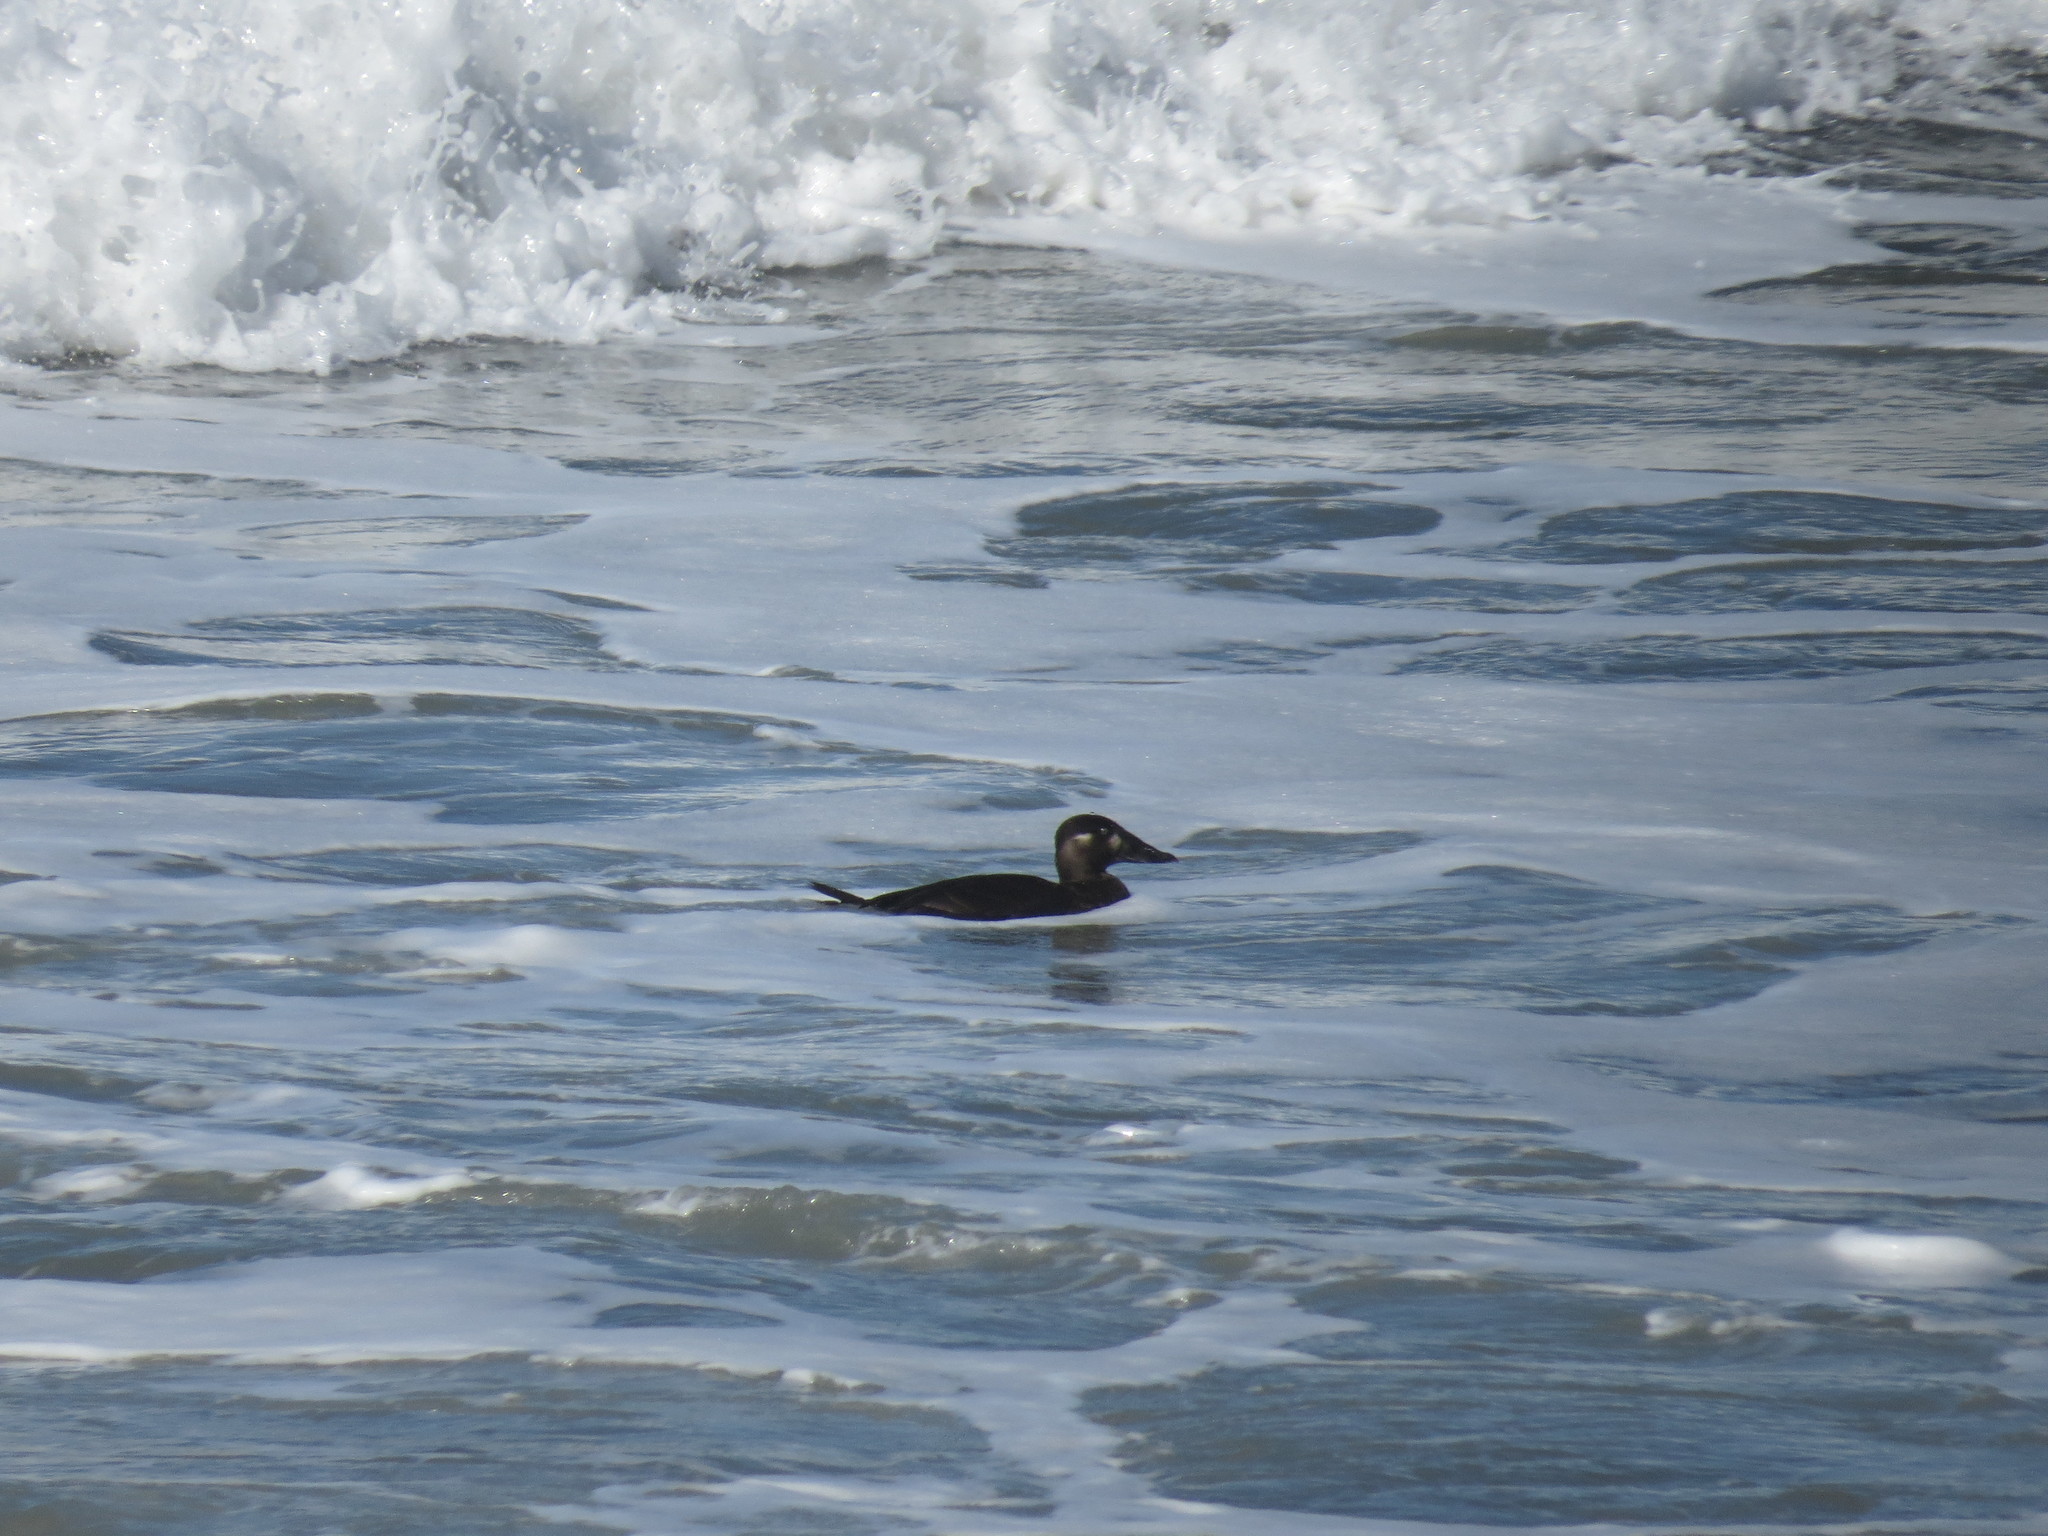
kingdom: Animalia
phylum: Chordata
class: Aves
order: Anseriformes
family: Anatidae
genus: Melanitta
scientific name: Melanitta perspicillata
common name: Surf scoter
